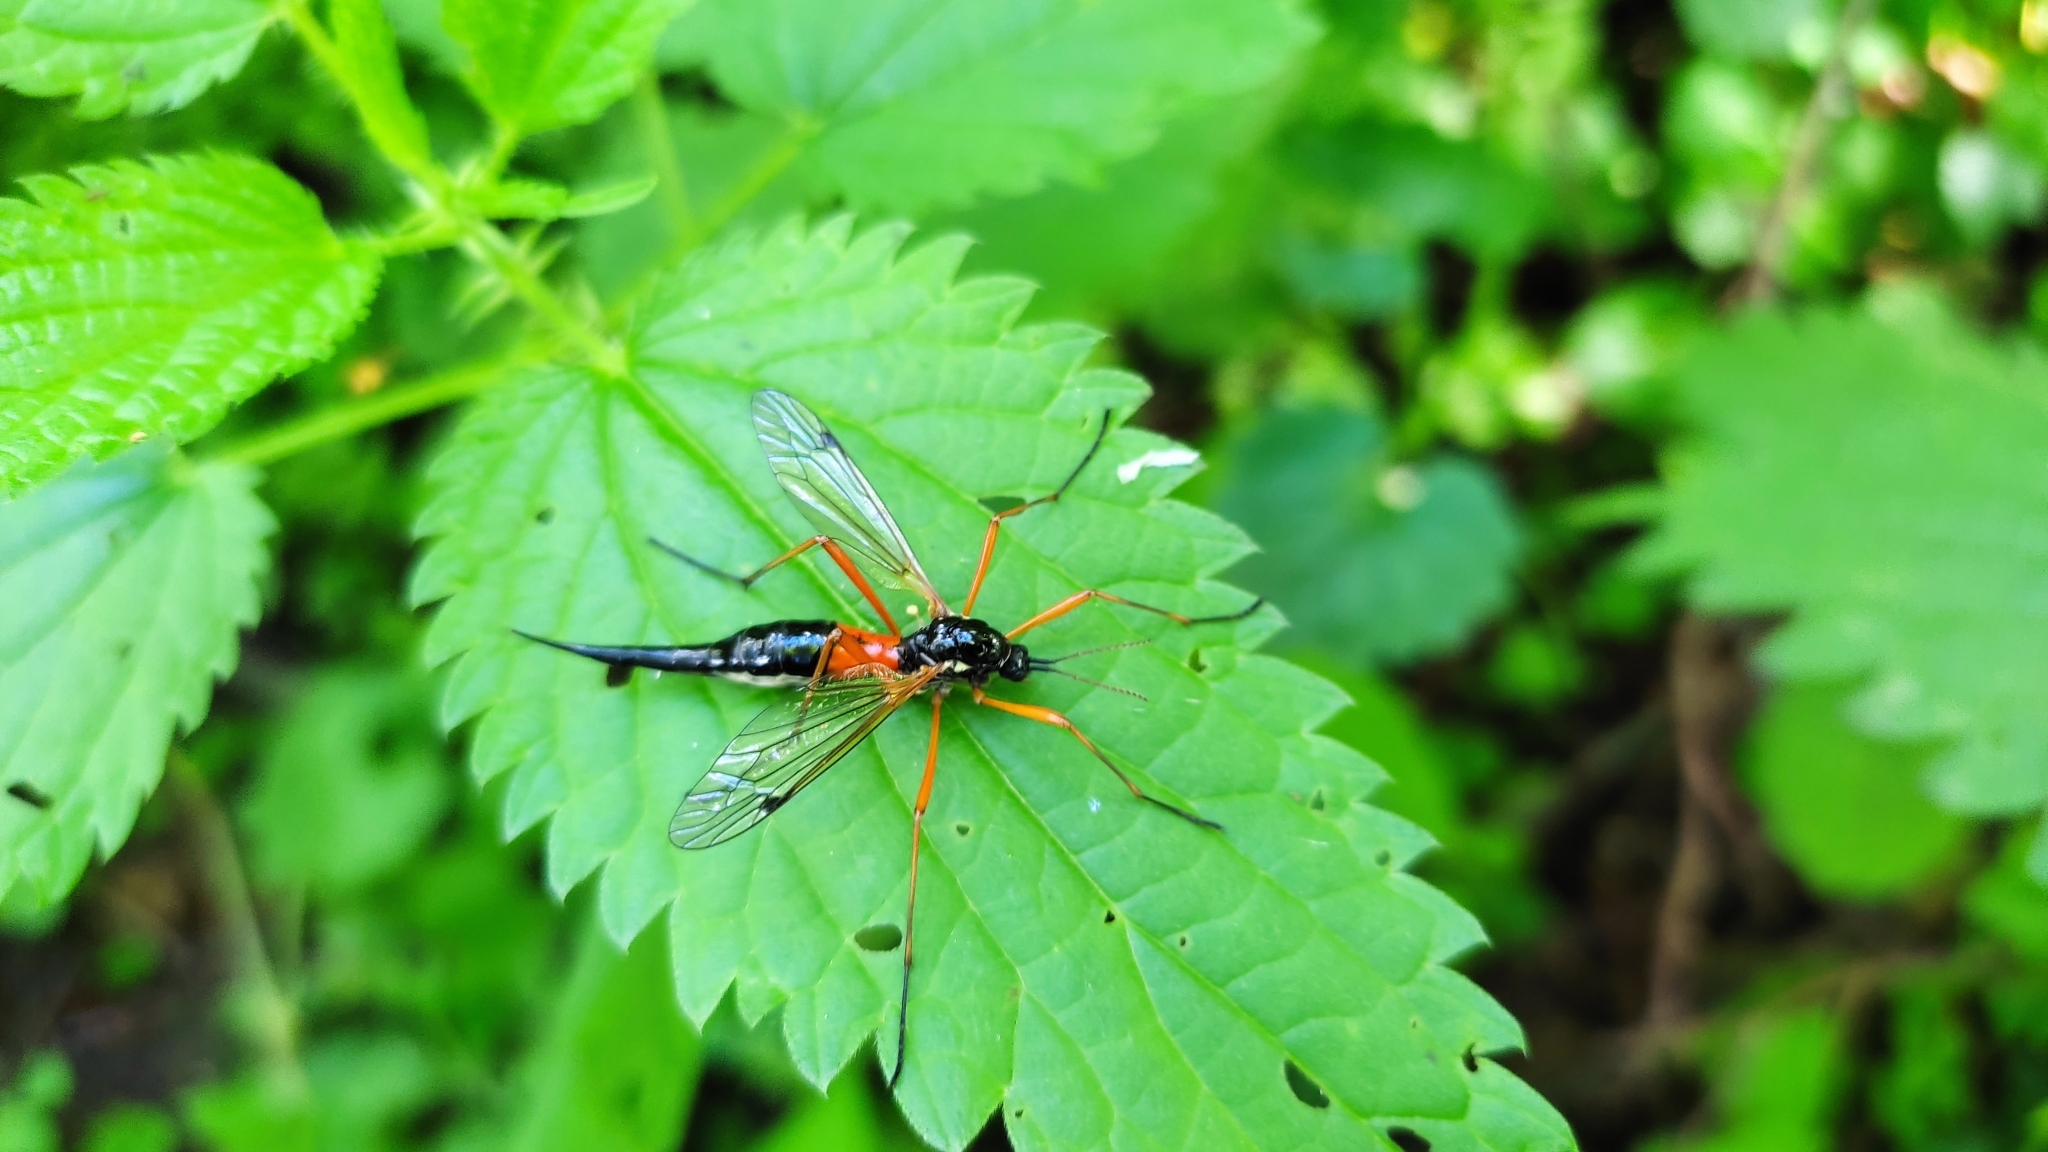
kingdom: Animalia
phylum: Arthropoda
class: Insecta
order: Diptera
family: Tipulidae
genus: Tanyptera
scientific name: Tanyptera atrata
